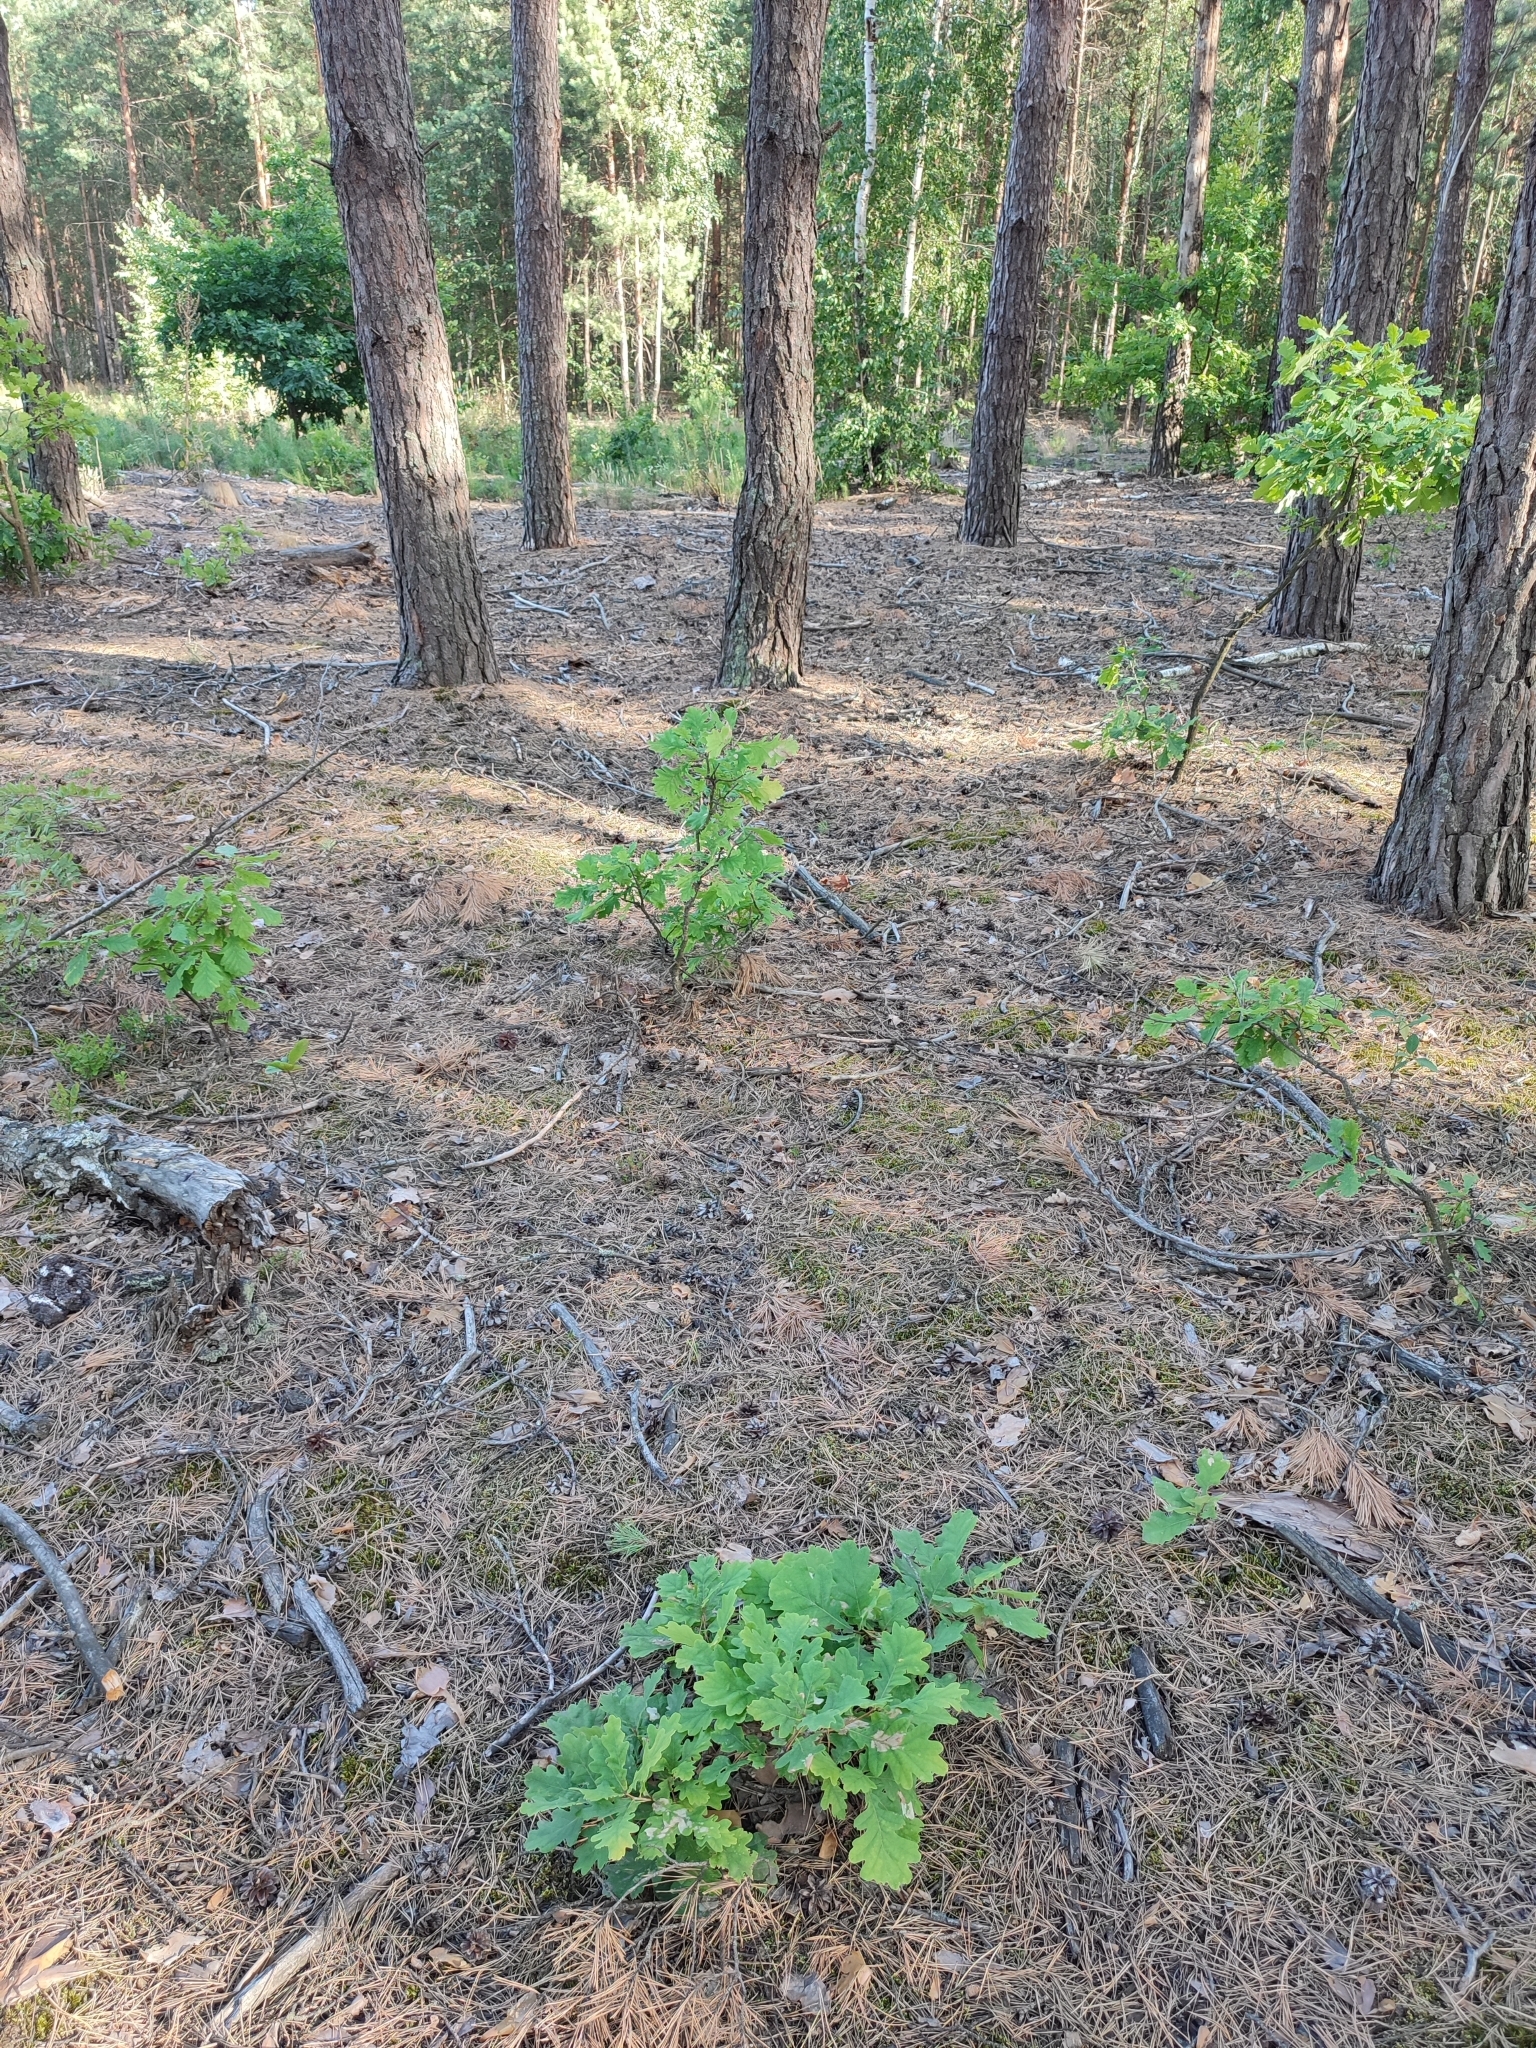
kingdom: Plantae
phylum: Tracheophyta
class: Magnoliopsida
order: Fagales
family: Fagaceae
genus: Quercus
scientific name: Quercus robur
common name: Pedunculate oak
